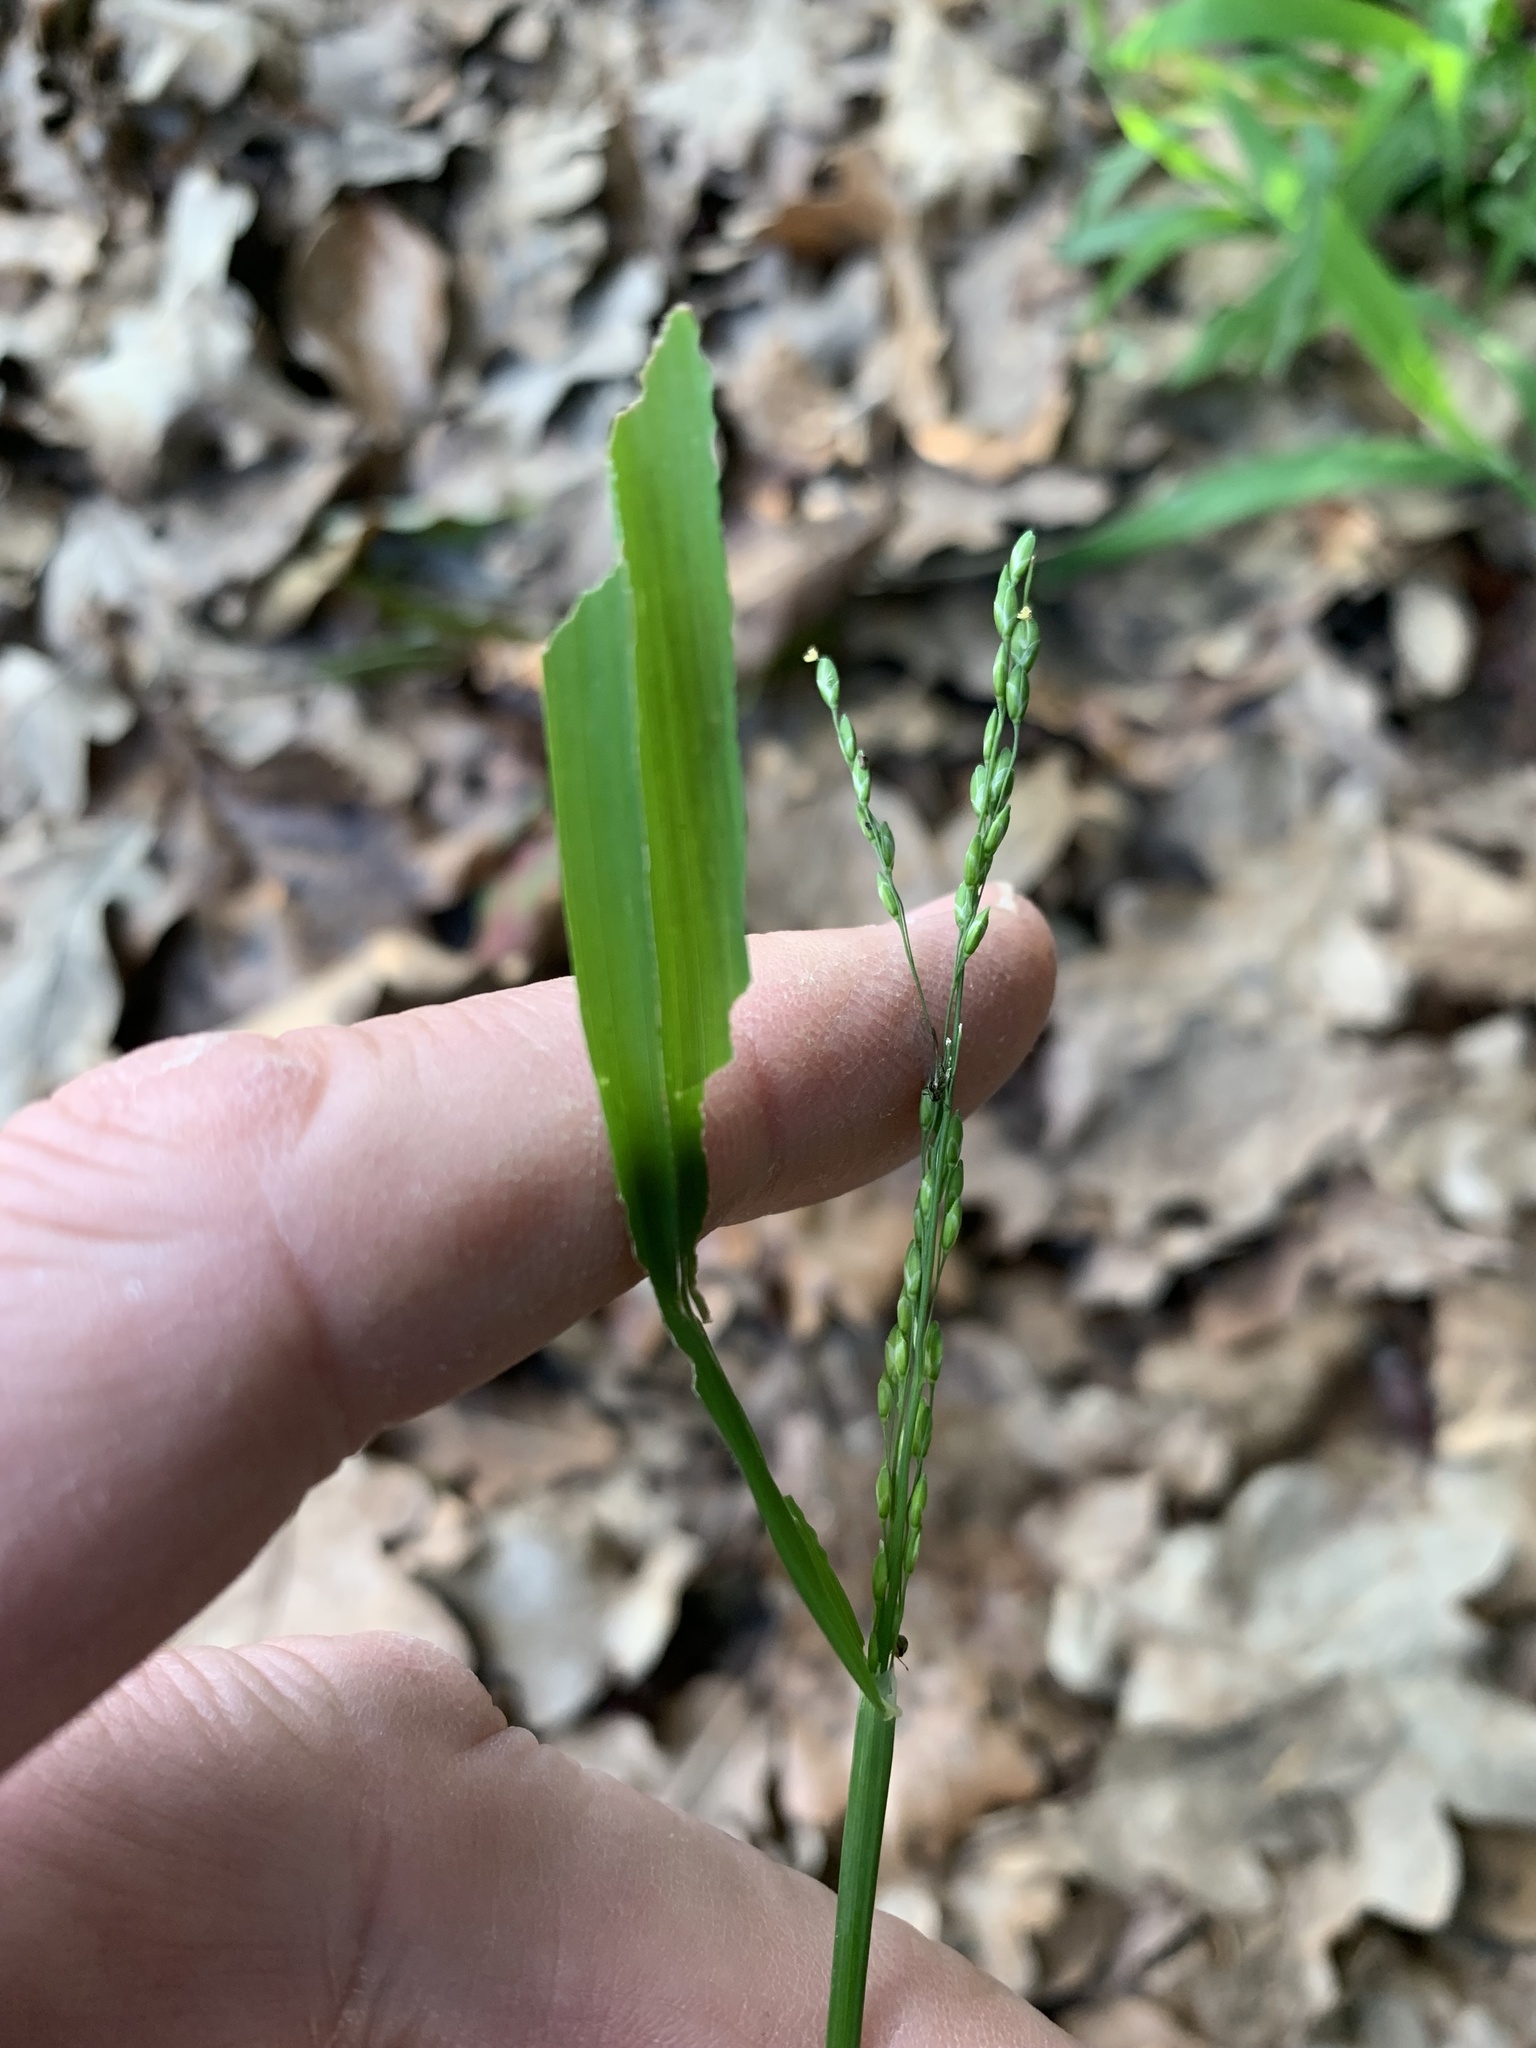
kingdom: Plantae
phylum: Tracheophyta
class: Liliopsida
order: Poales
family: Poaceae
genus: Ehrharta
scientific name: Ehrharta erecta
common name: Panic veldtgrass
